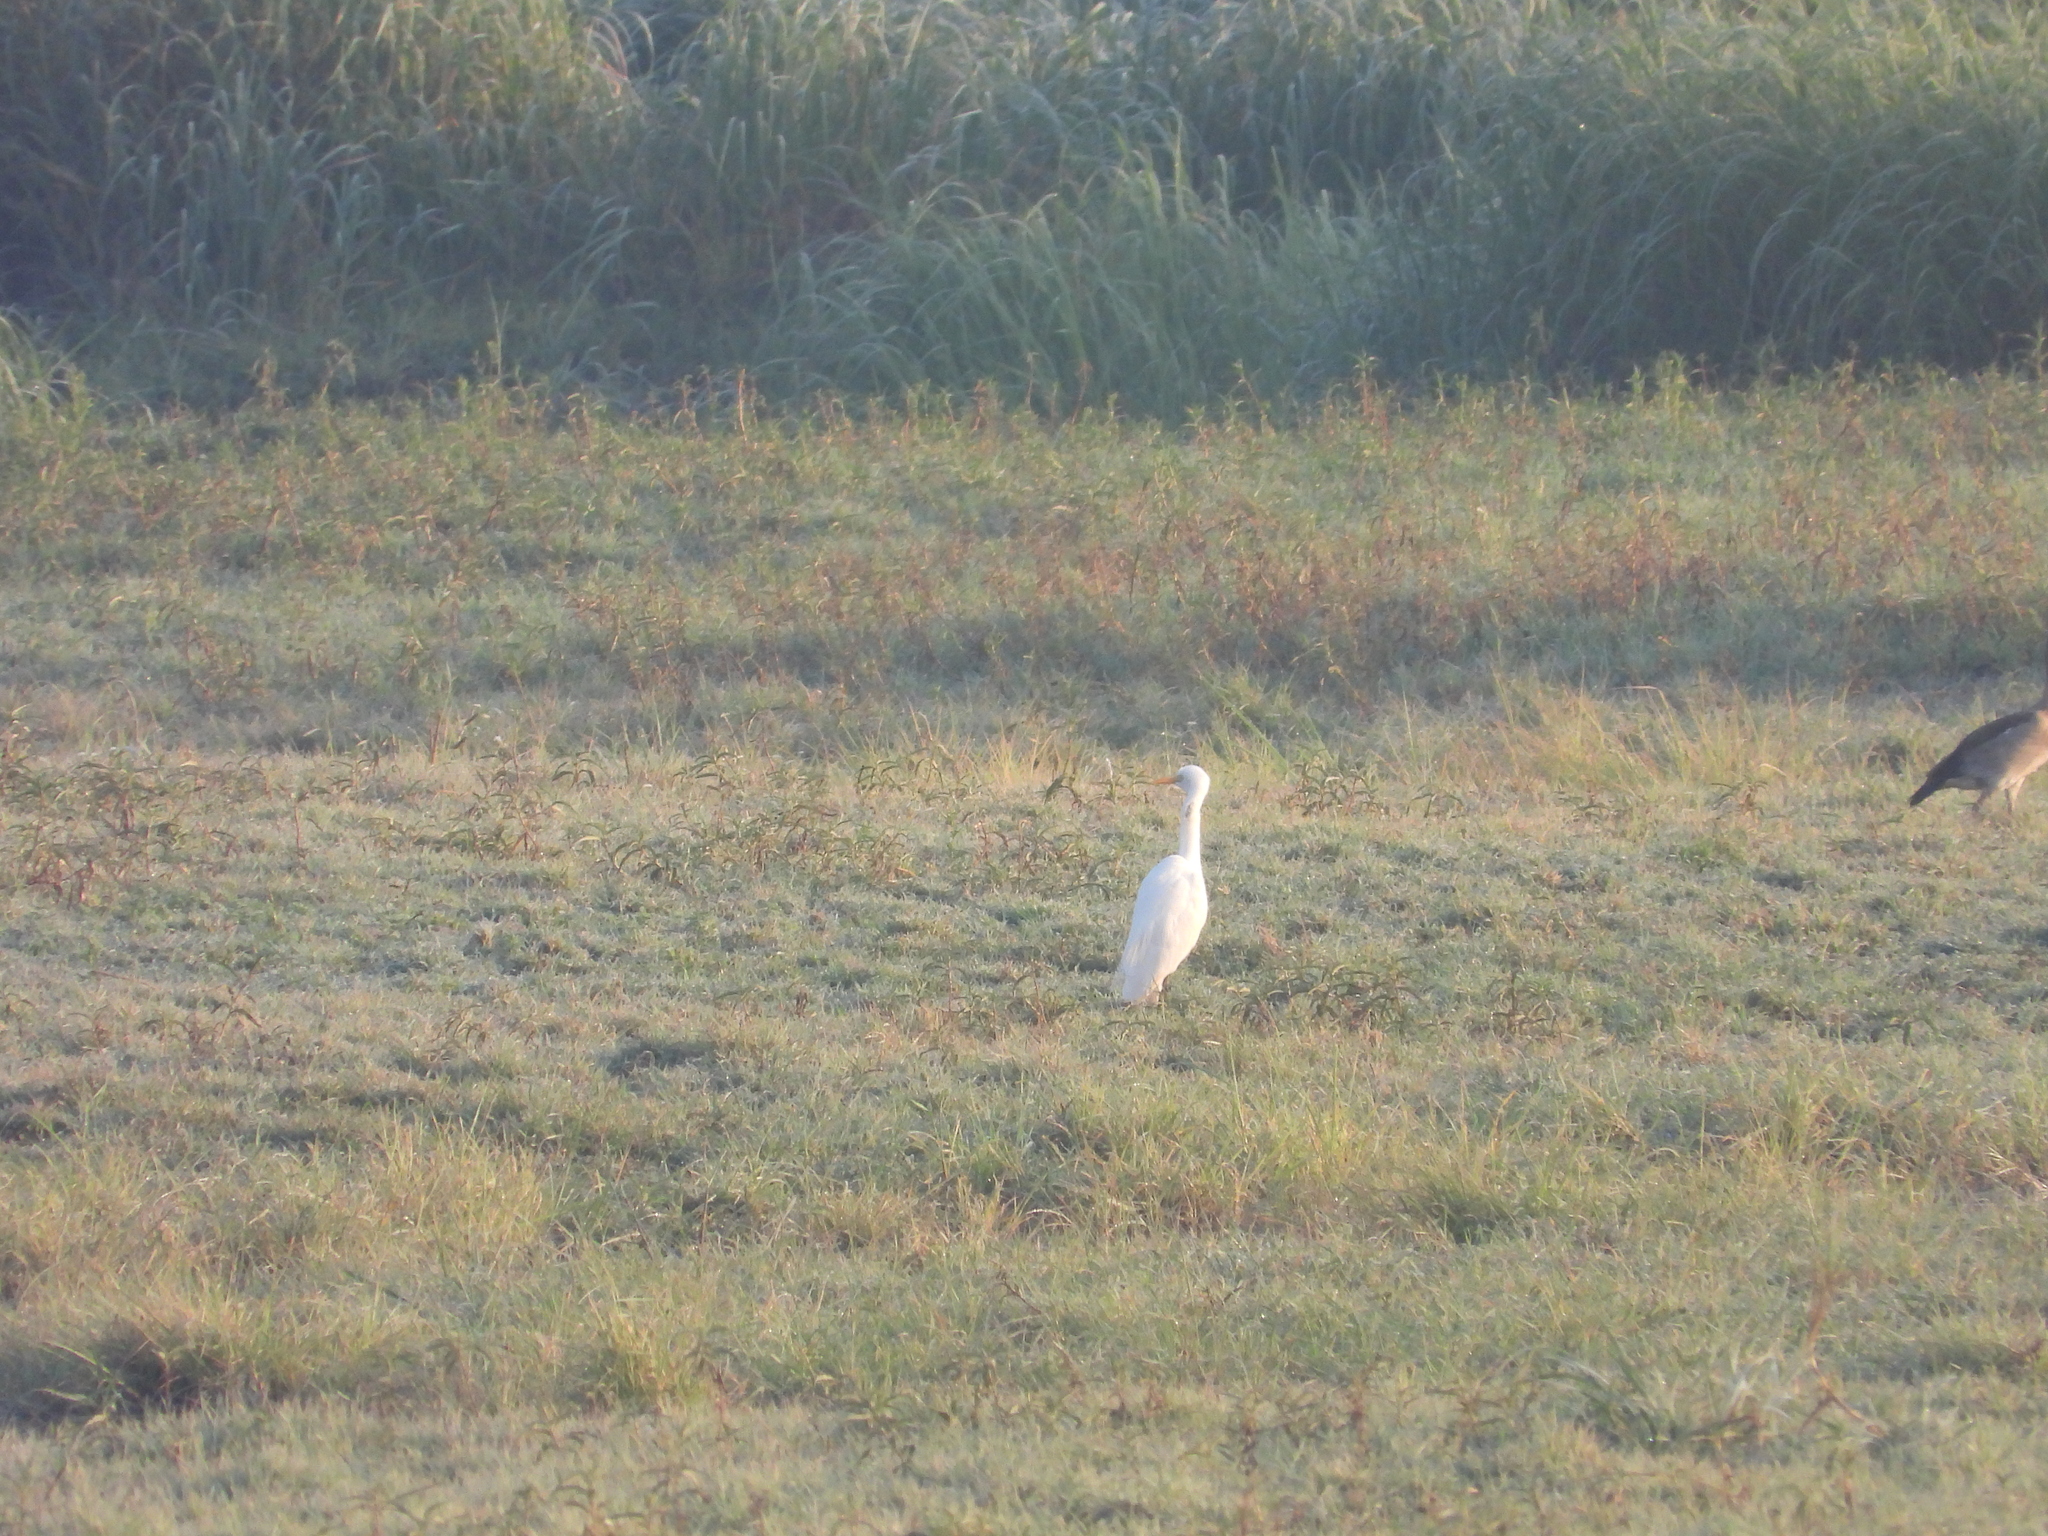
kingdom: Animalia
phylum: Chordata
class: Aves
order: Pelecaniformes
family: Ardeidae
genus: Bubulcus
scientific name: Bubulcus ibis
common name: Cattle egret
